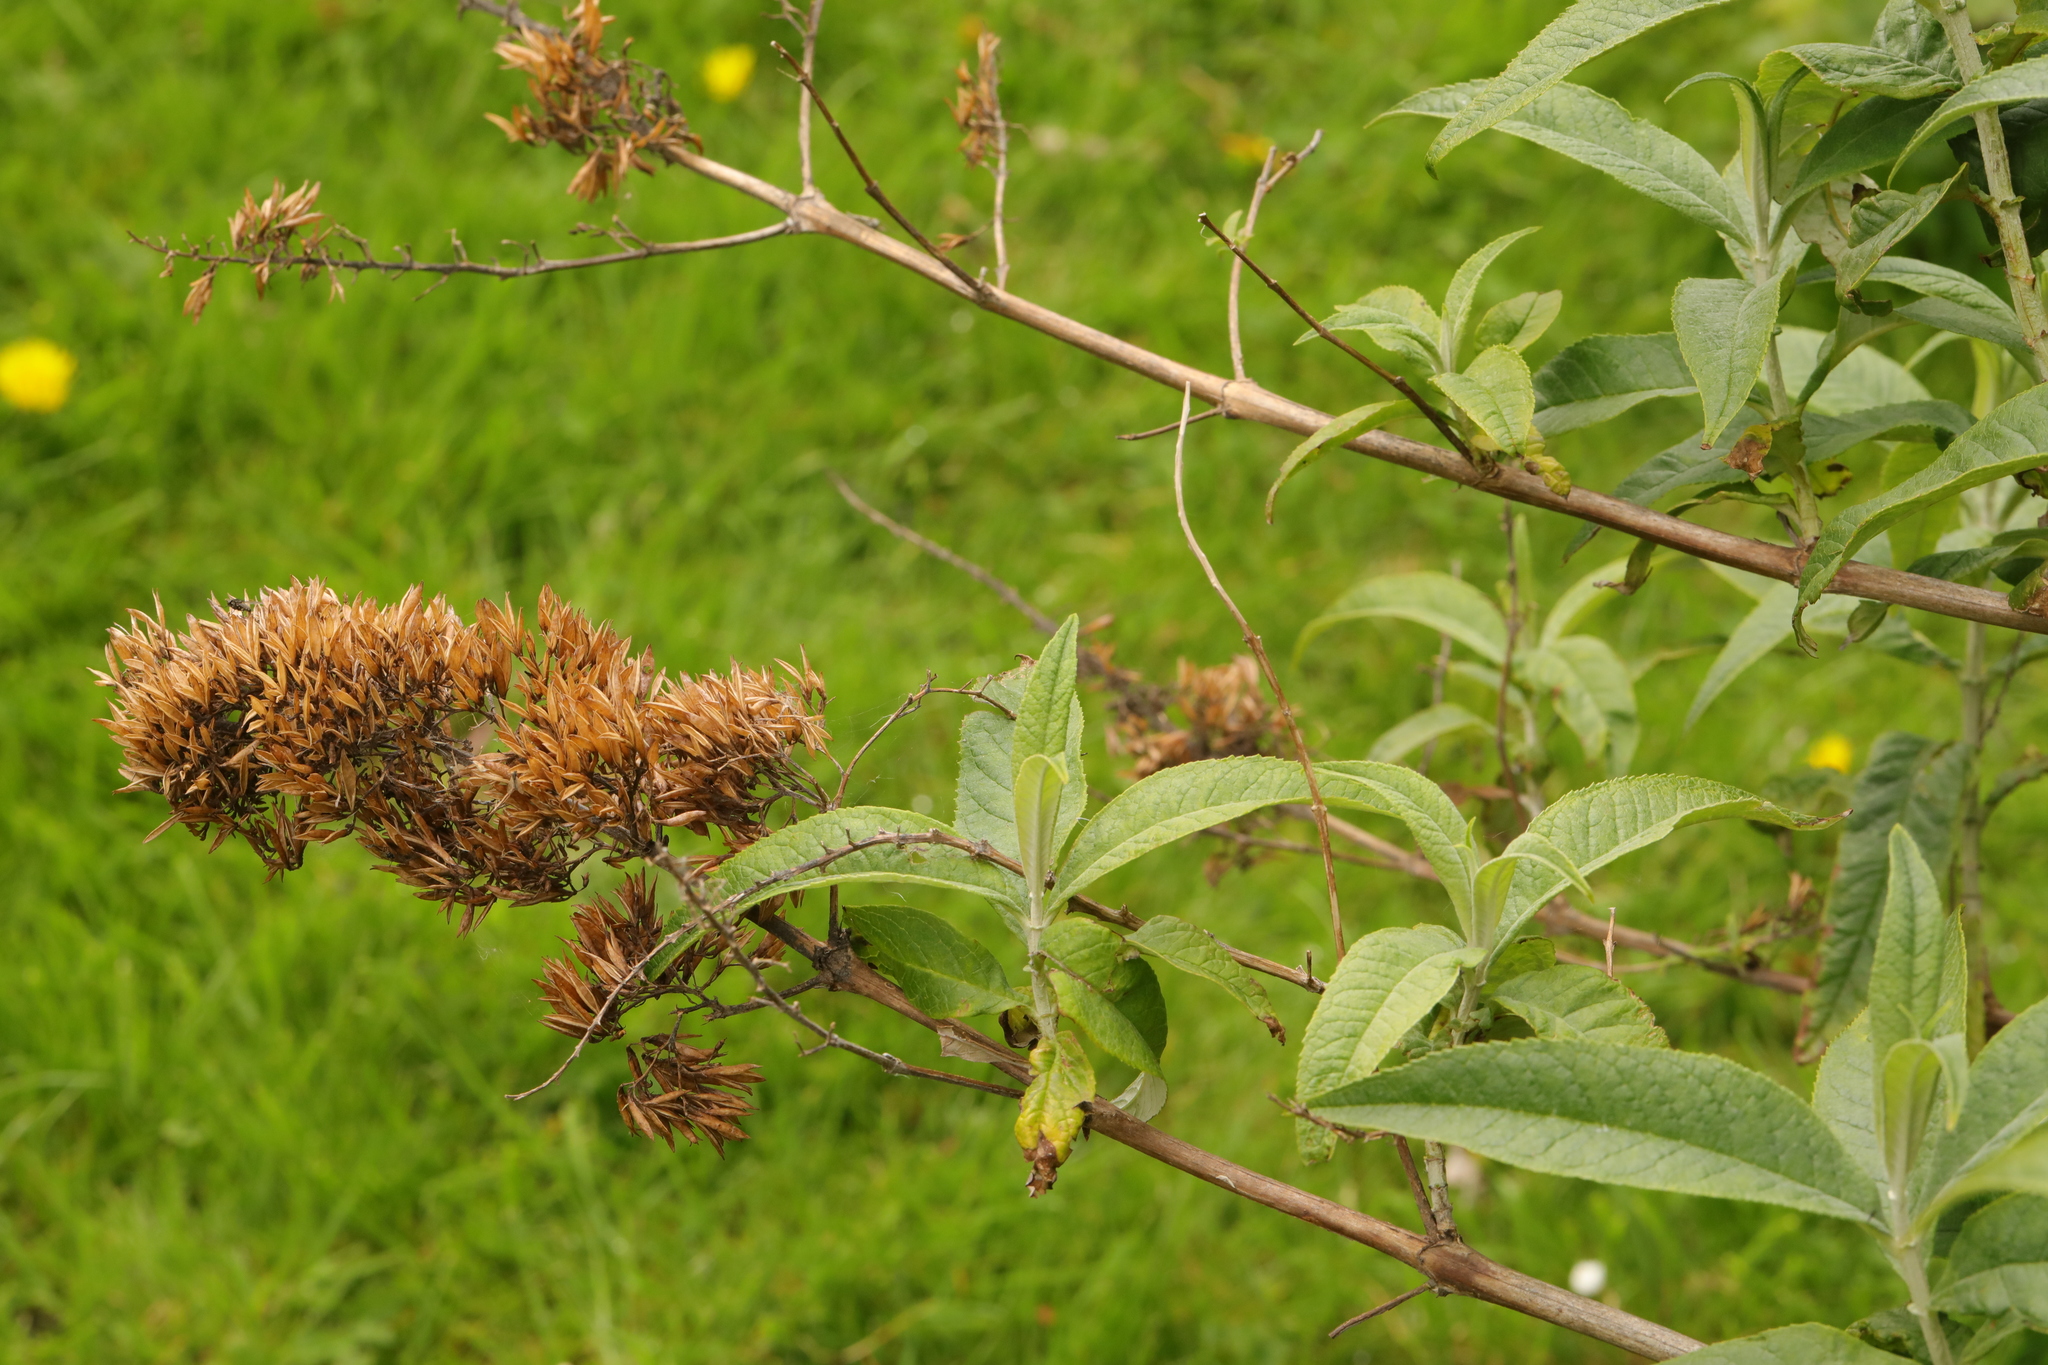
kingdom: Plantae
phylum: Tracheophyta
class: Magnoliopsida
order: Lamiales
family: Scrophulariaceae
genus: Buddleja
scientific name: Buddleja davidii
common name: Butterfly-bush
